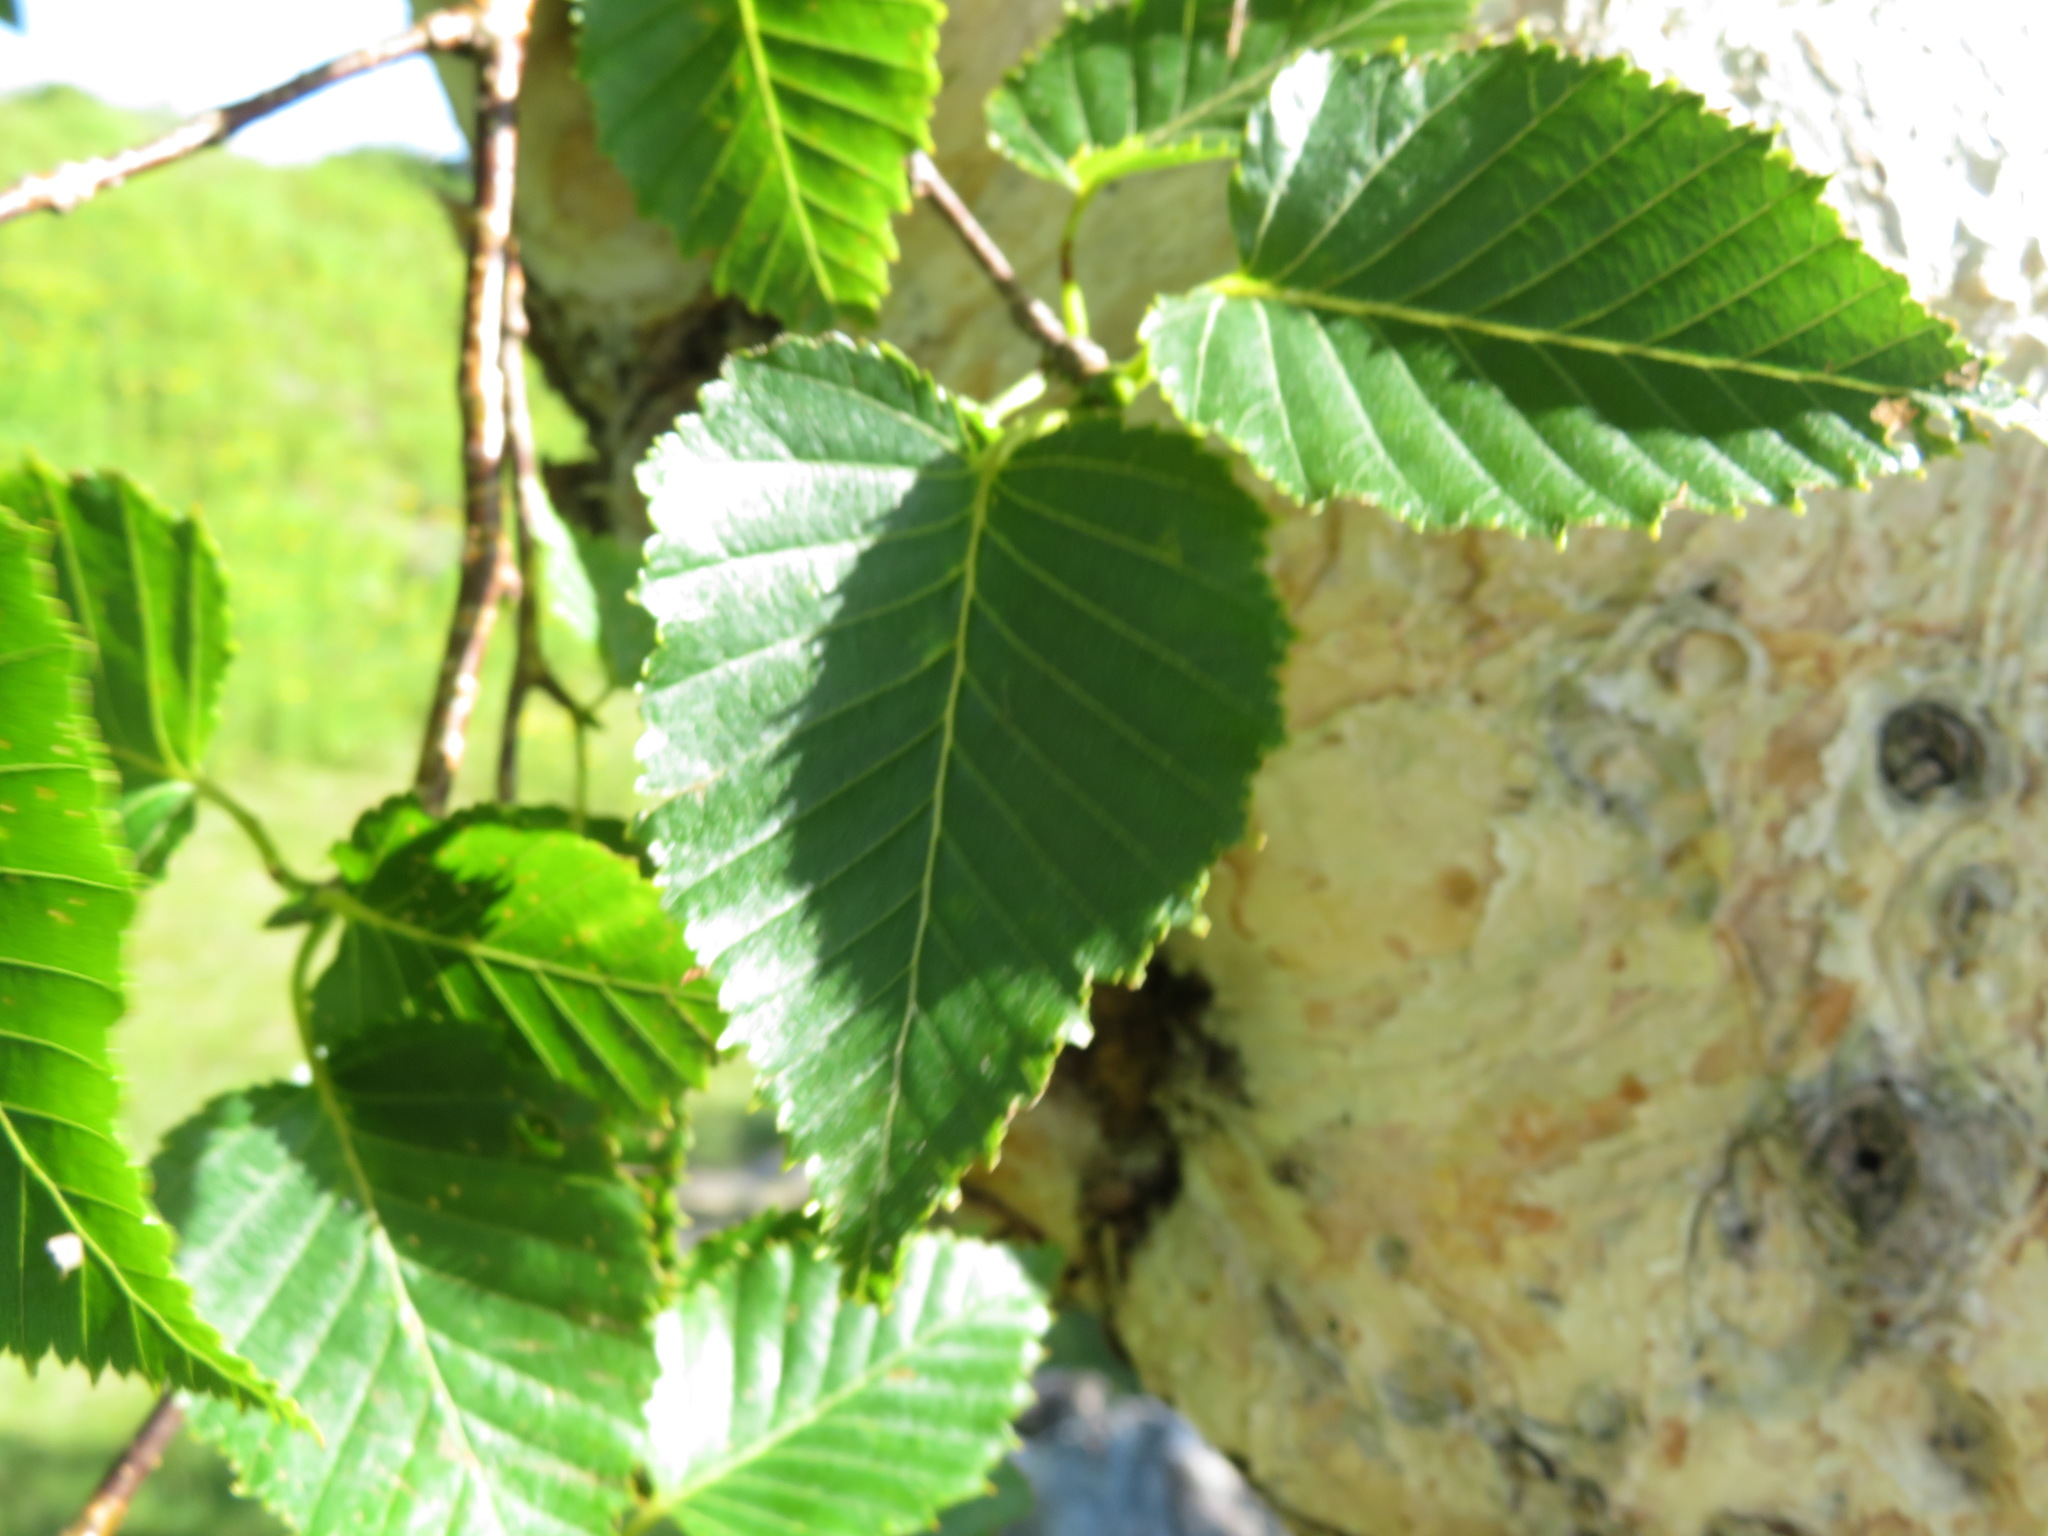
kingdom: Plantae
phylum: Tracheophyta
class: Magnoliopsida
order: Fagales
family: Betulaceae
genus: Betula
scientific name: Betula ermanii
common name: Erman's birch
